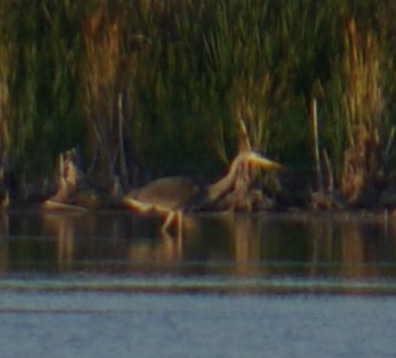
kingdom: Animalia
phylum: Chordata
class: Aves
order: Pelecaniformes
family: Ardeidae
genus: Ardea
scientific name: Ardea herodias
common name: Great blue heron
